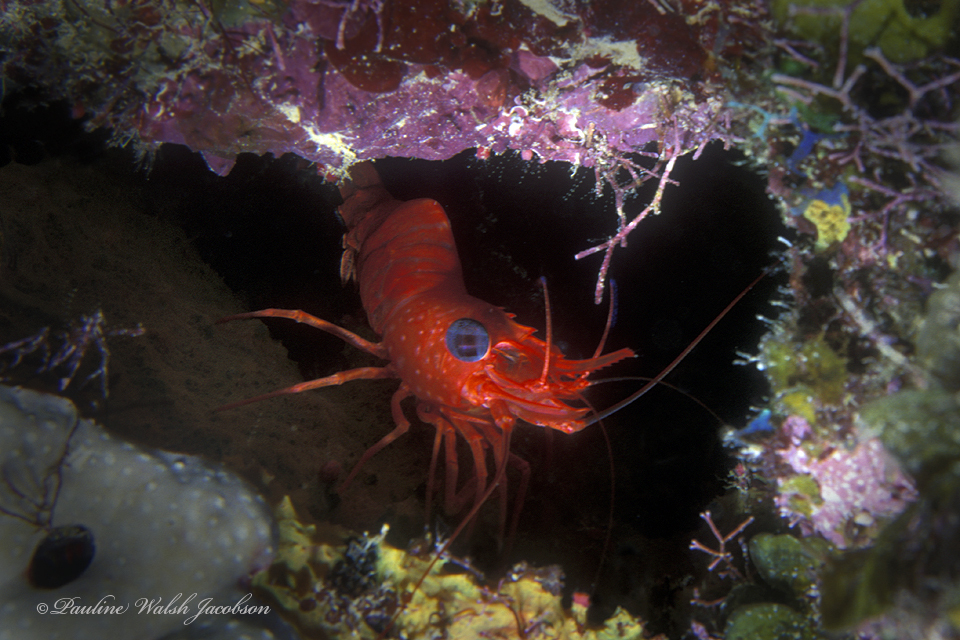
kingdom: Animalia
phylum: Arthropoda
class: Malacostraca
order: Decapoda
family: Rhynchocinetidae
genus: Cinetorhynchus
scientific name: Cinetorhynchus manningi
